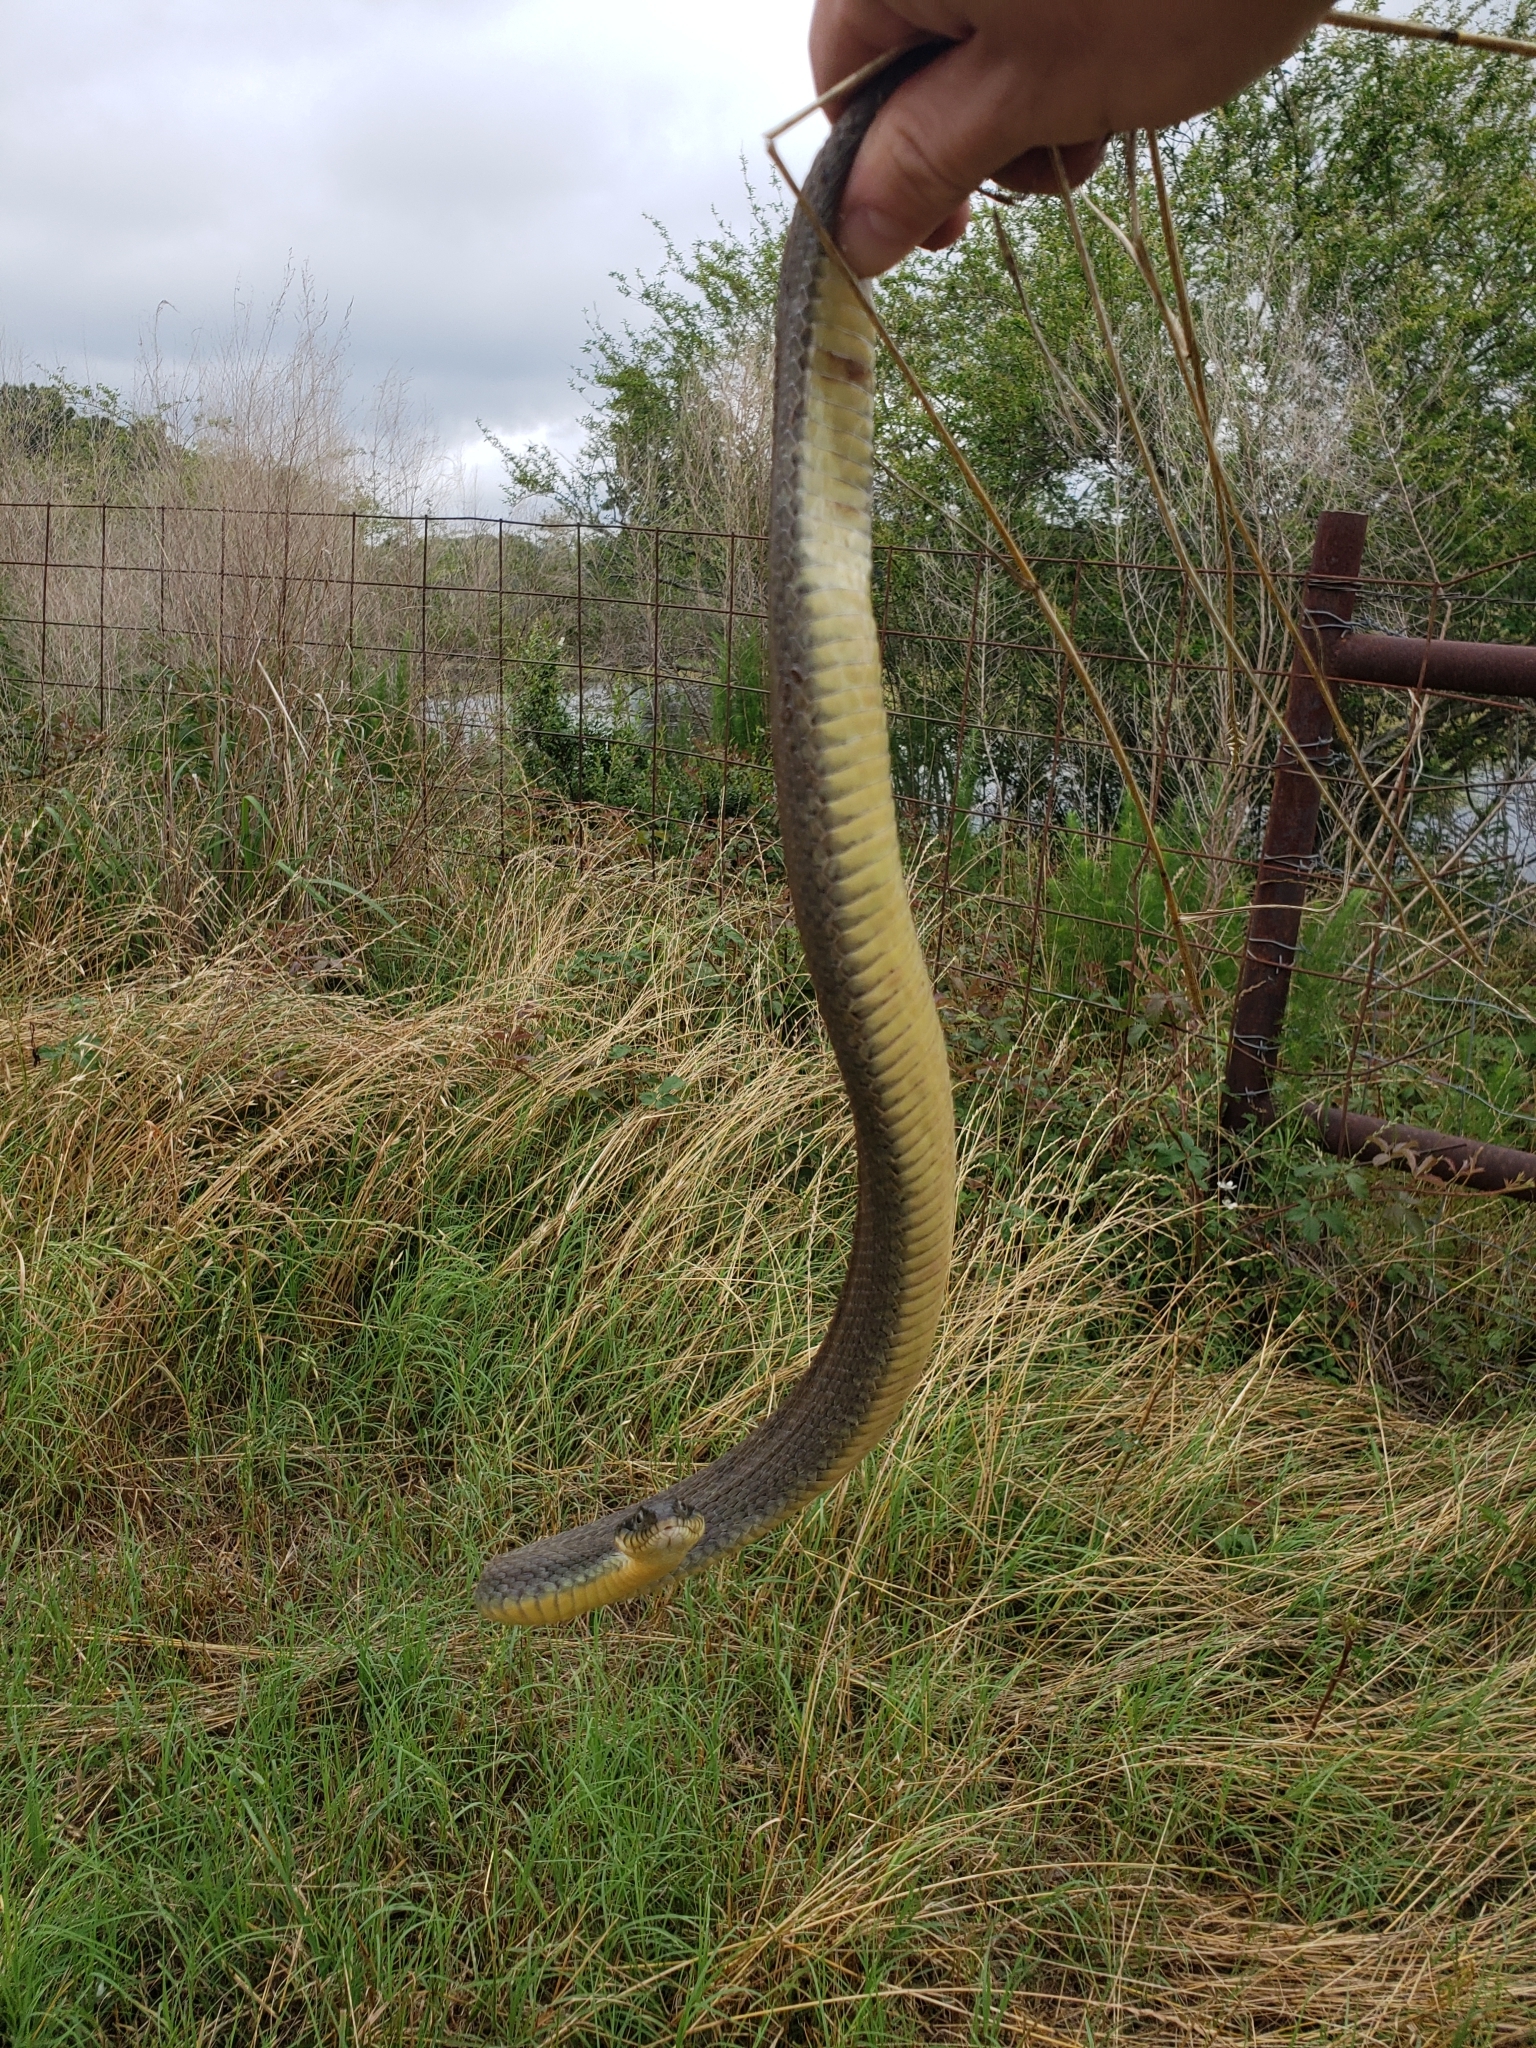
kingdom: Animalia
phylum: Chordata
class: Squamata
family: Colubridae
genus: Nerodia
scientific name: Nerodia erythrogaster
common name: Plainbelly water snake
